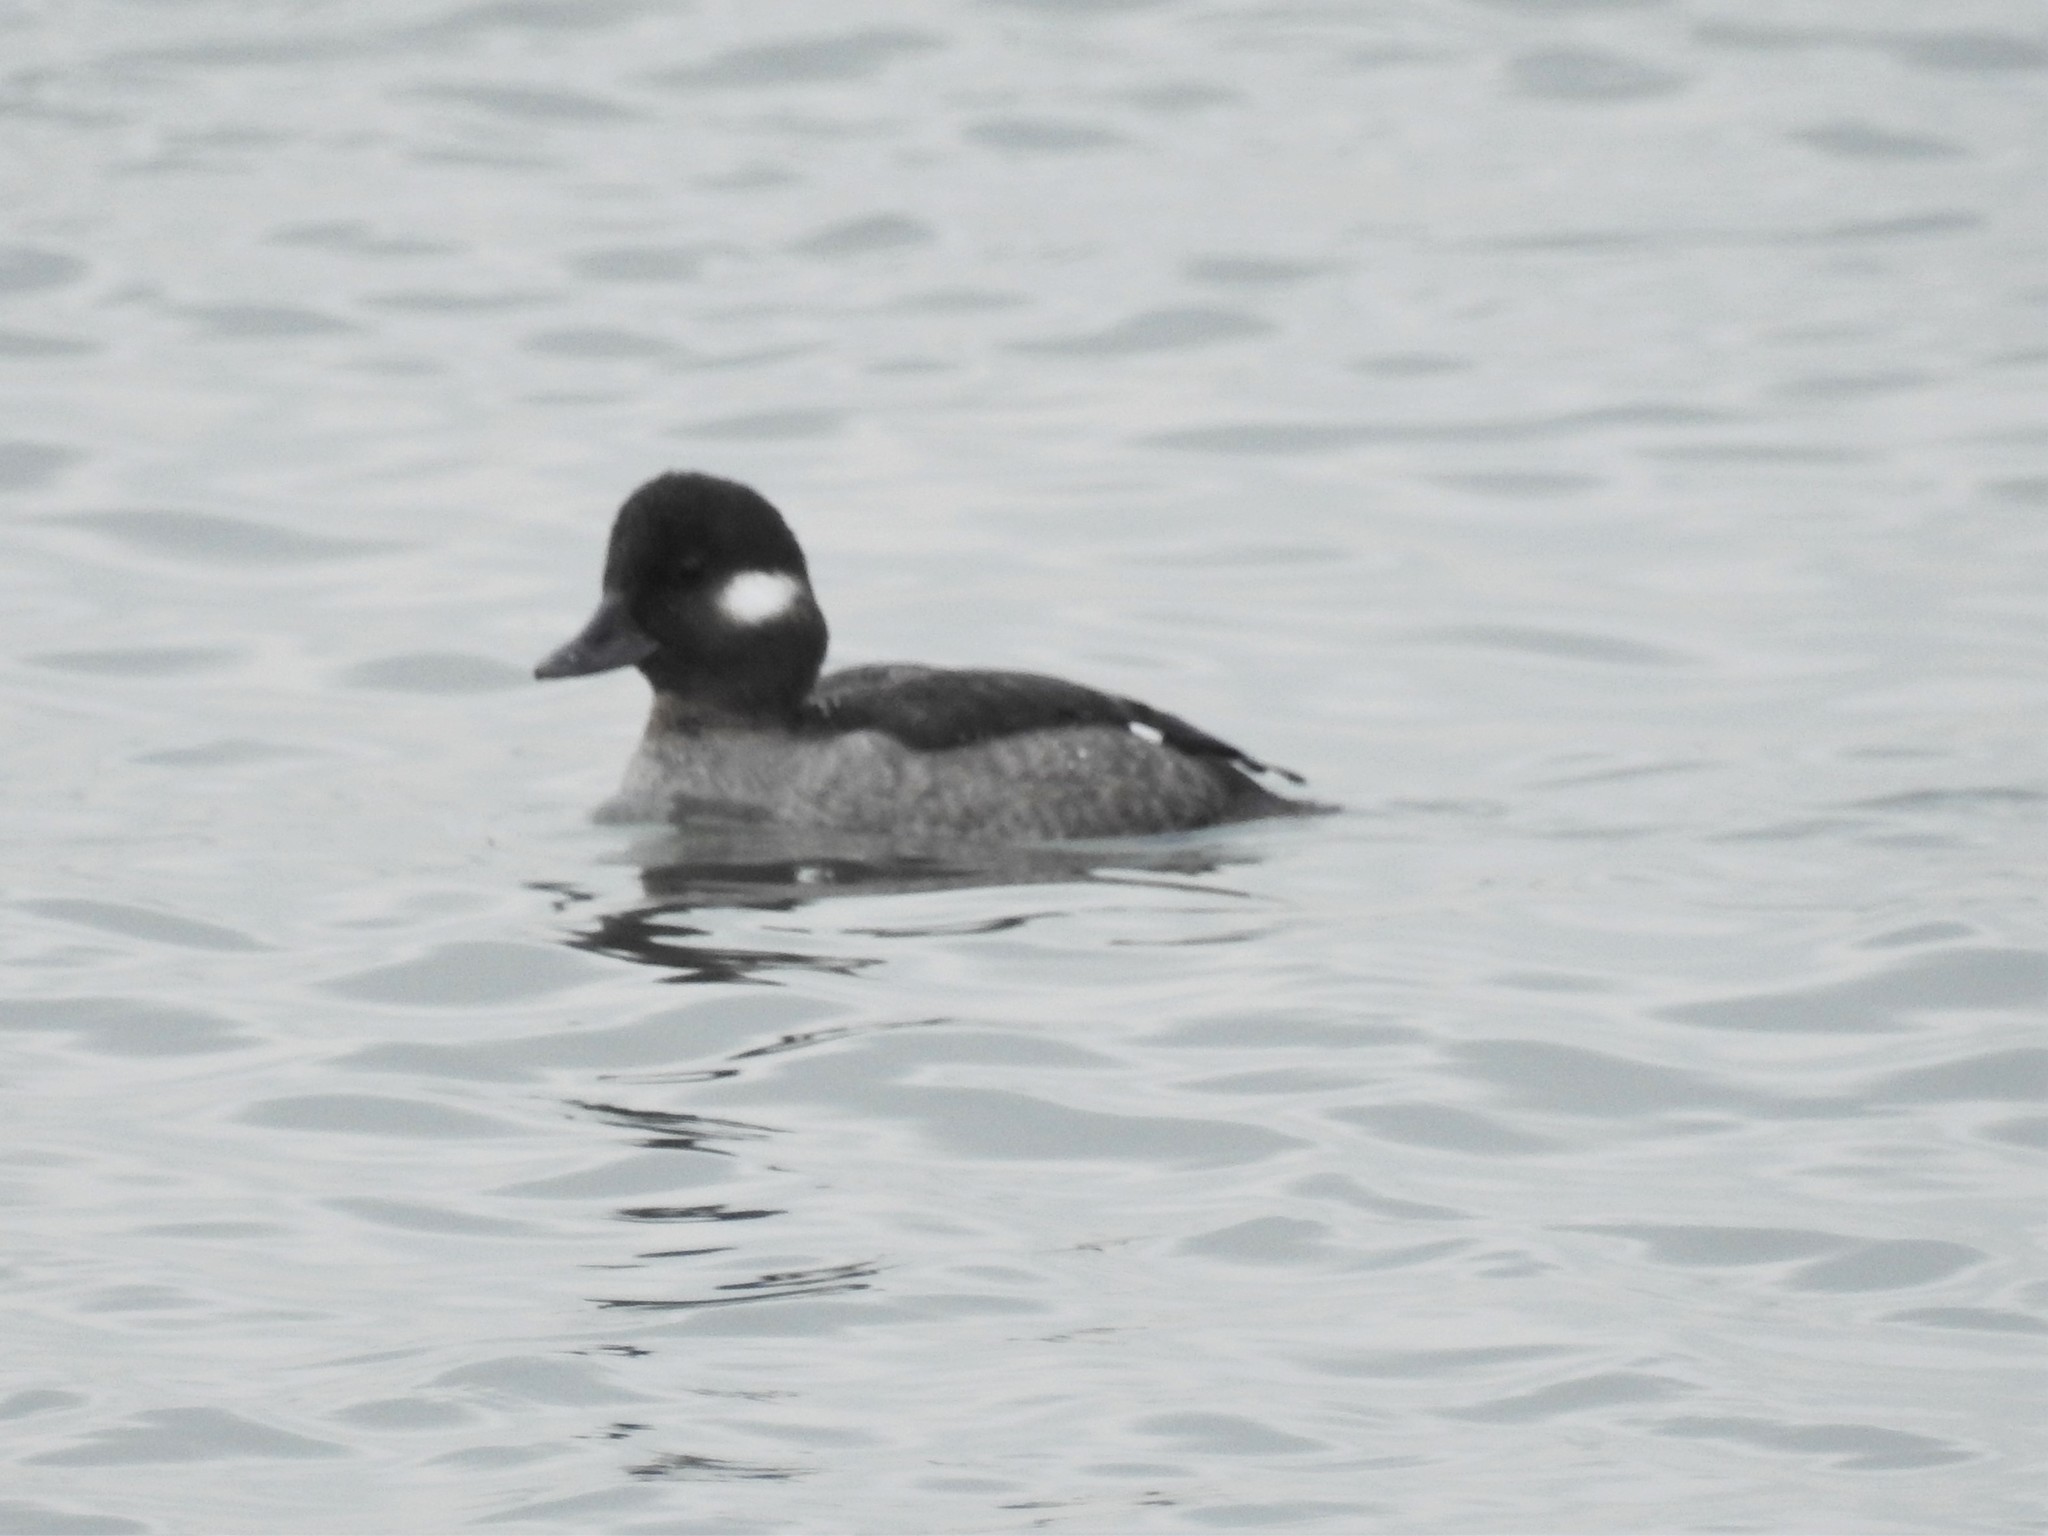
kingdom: Animalia
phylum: Chordata
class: Aves
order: Anseriformes
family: Anatidae
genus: Bucephala
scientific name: Bucephala albeola
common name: Bufflehead
